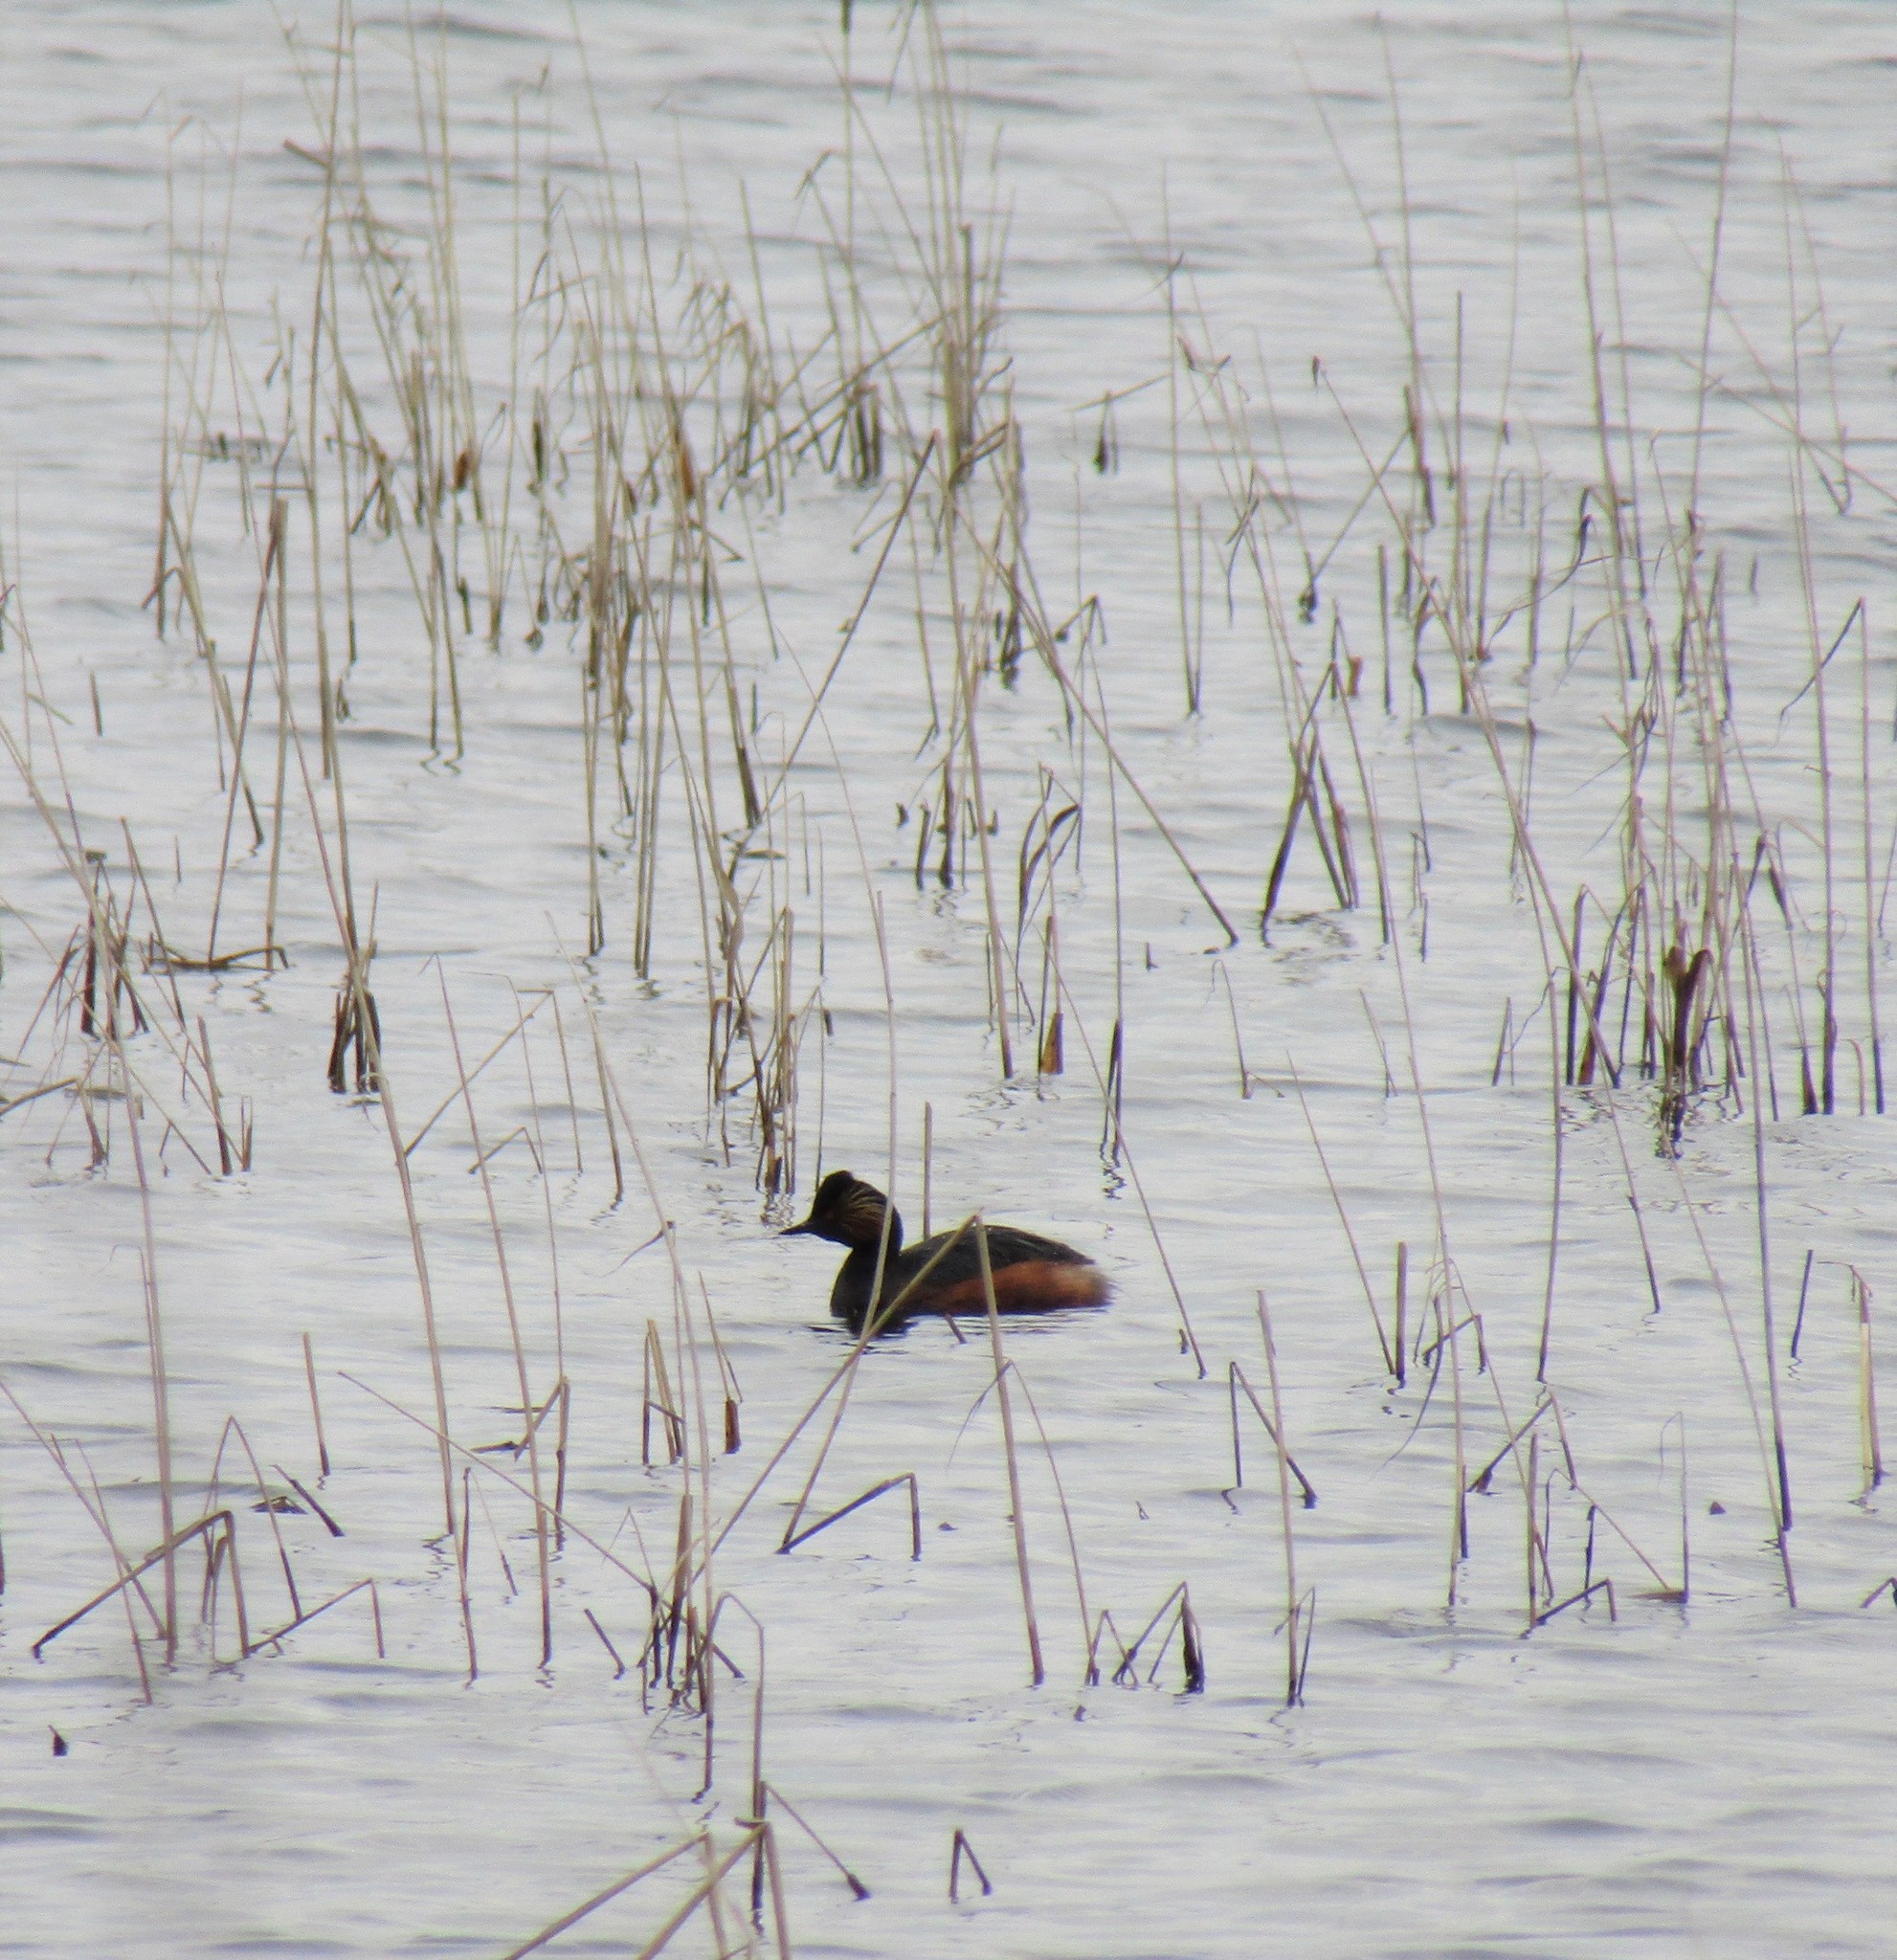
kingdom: Animalia
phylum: Chordata
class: Aves
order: Podicipediformes
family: Podicipedidae
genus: Podiceps
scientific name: Podiceps nigricollis
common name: Black-necked grebe
